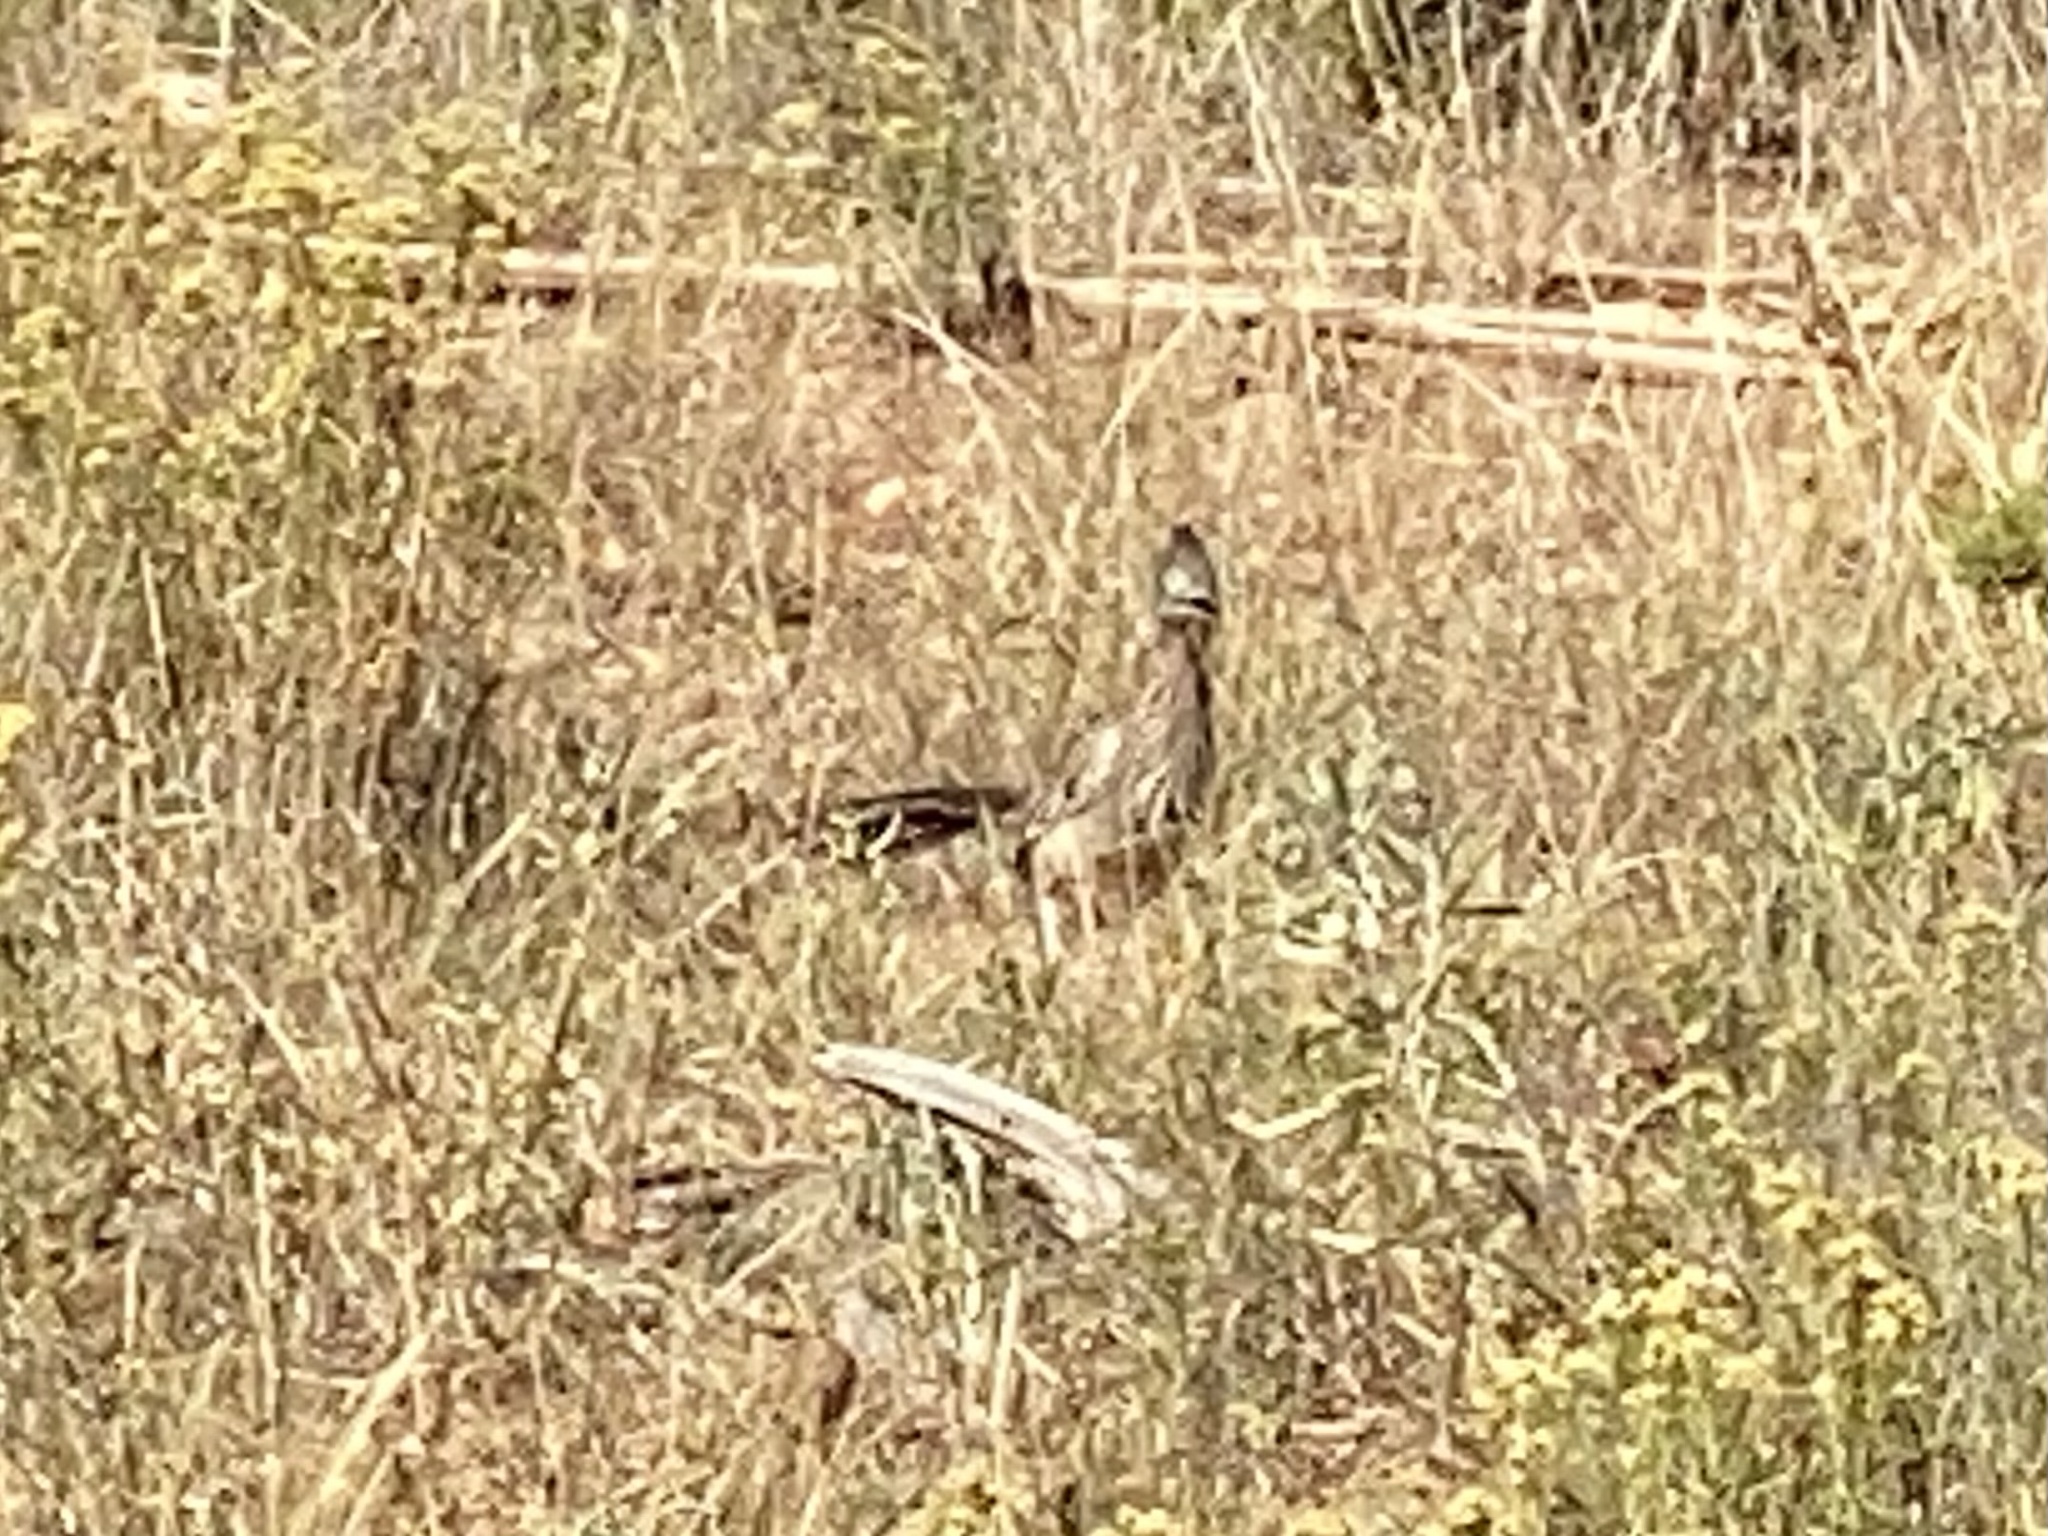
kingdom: Animalia
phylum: Chordata
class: Aves
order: Cuculiformes
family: Cuculidae
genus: Geococcyx
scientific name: Geococcyx californianus
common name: Greater roadrunner
